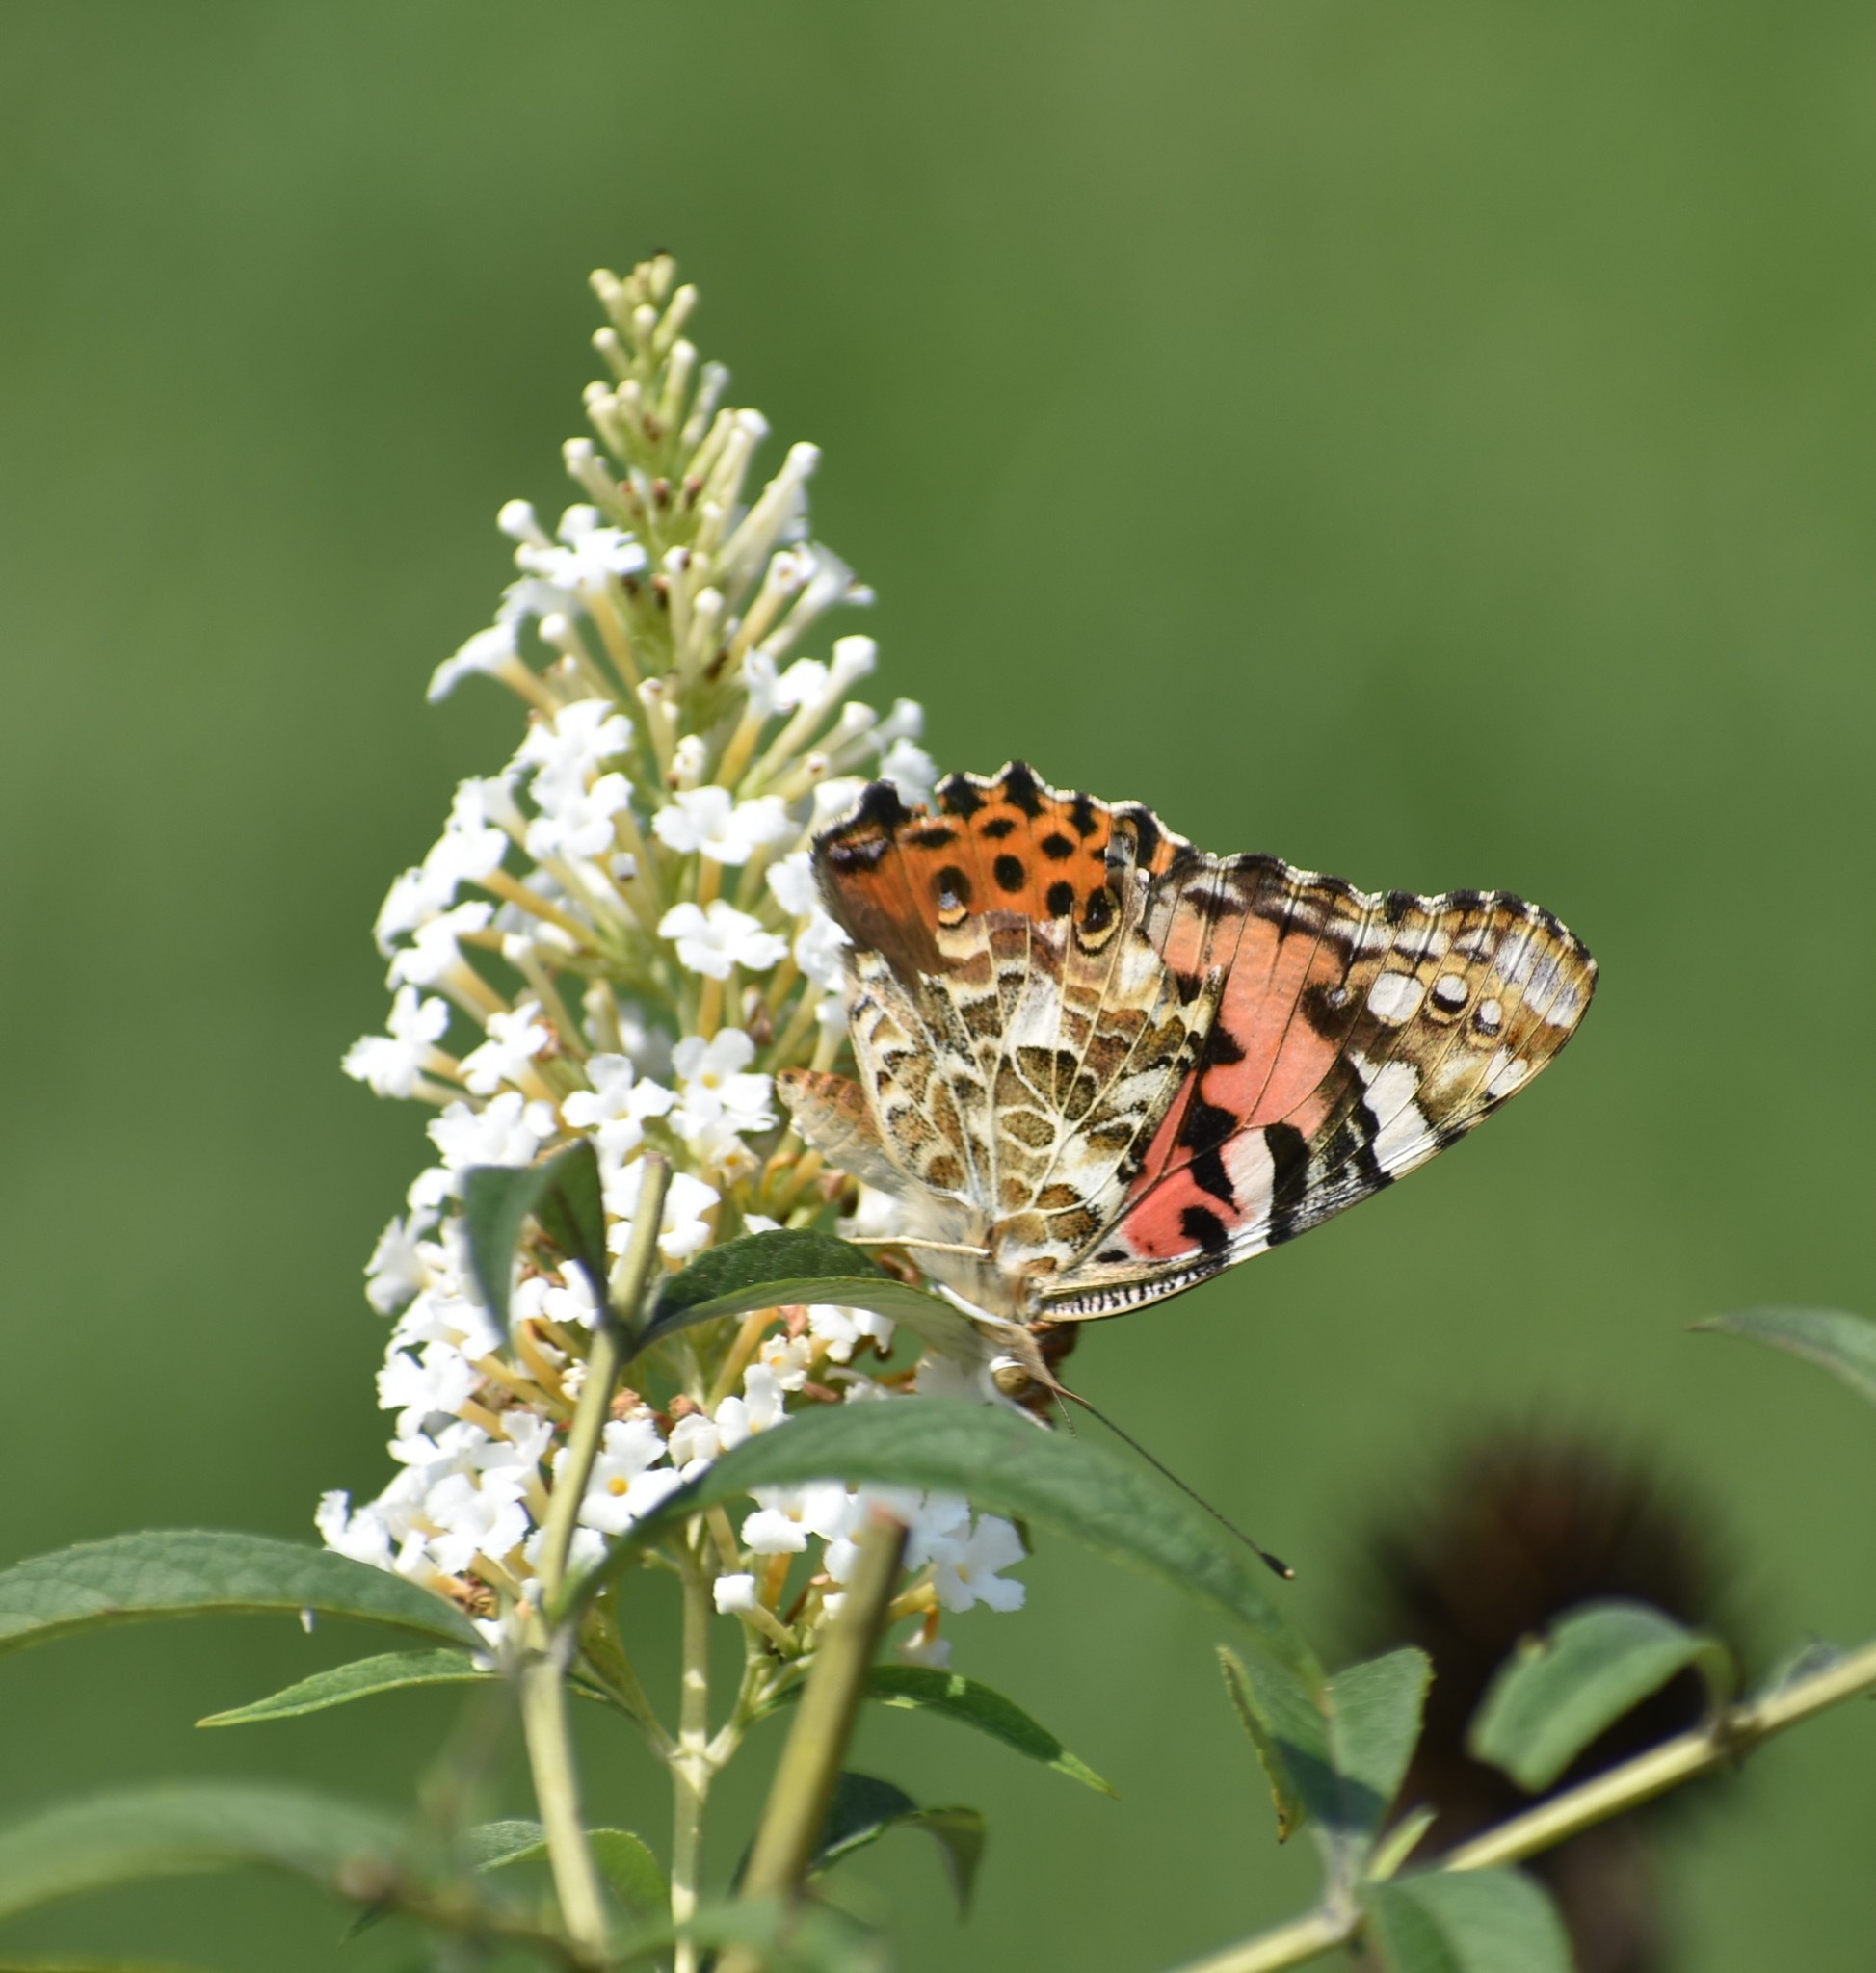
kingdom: Animalia
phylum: Arthropoda
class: Insecta
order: Lepidoptera
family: Nymphalidae
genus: Vanessa
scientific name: Vanessa cardui
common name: Painted lady
